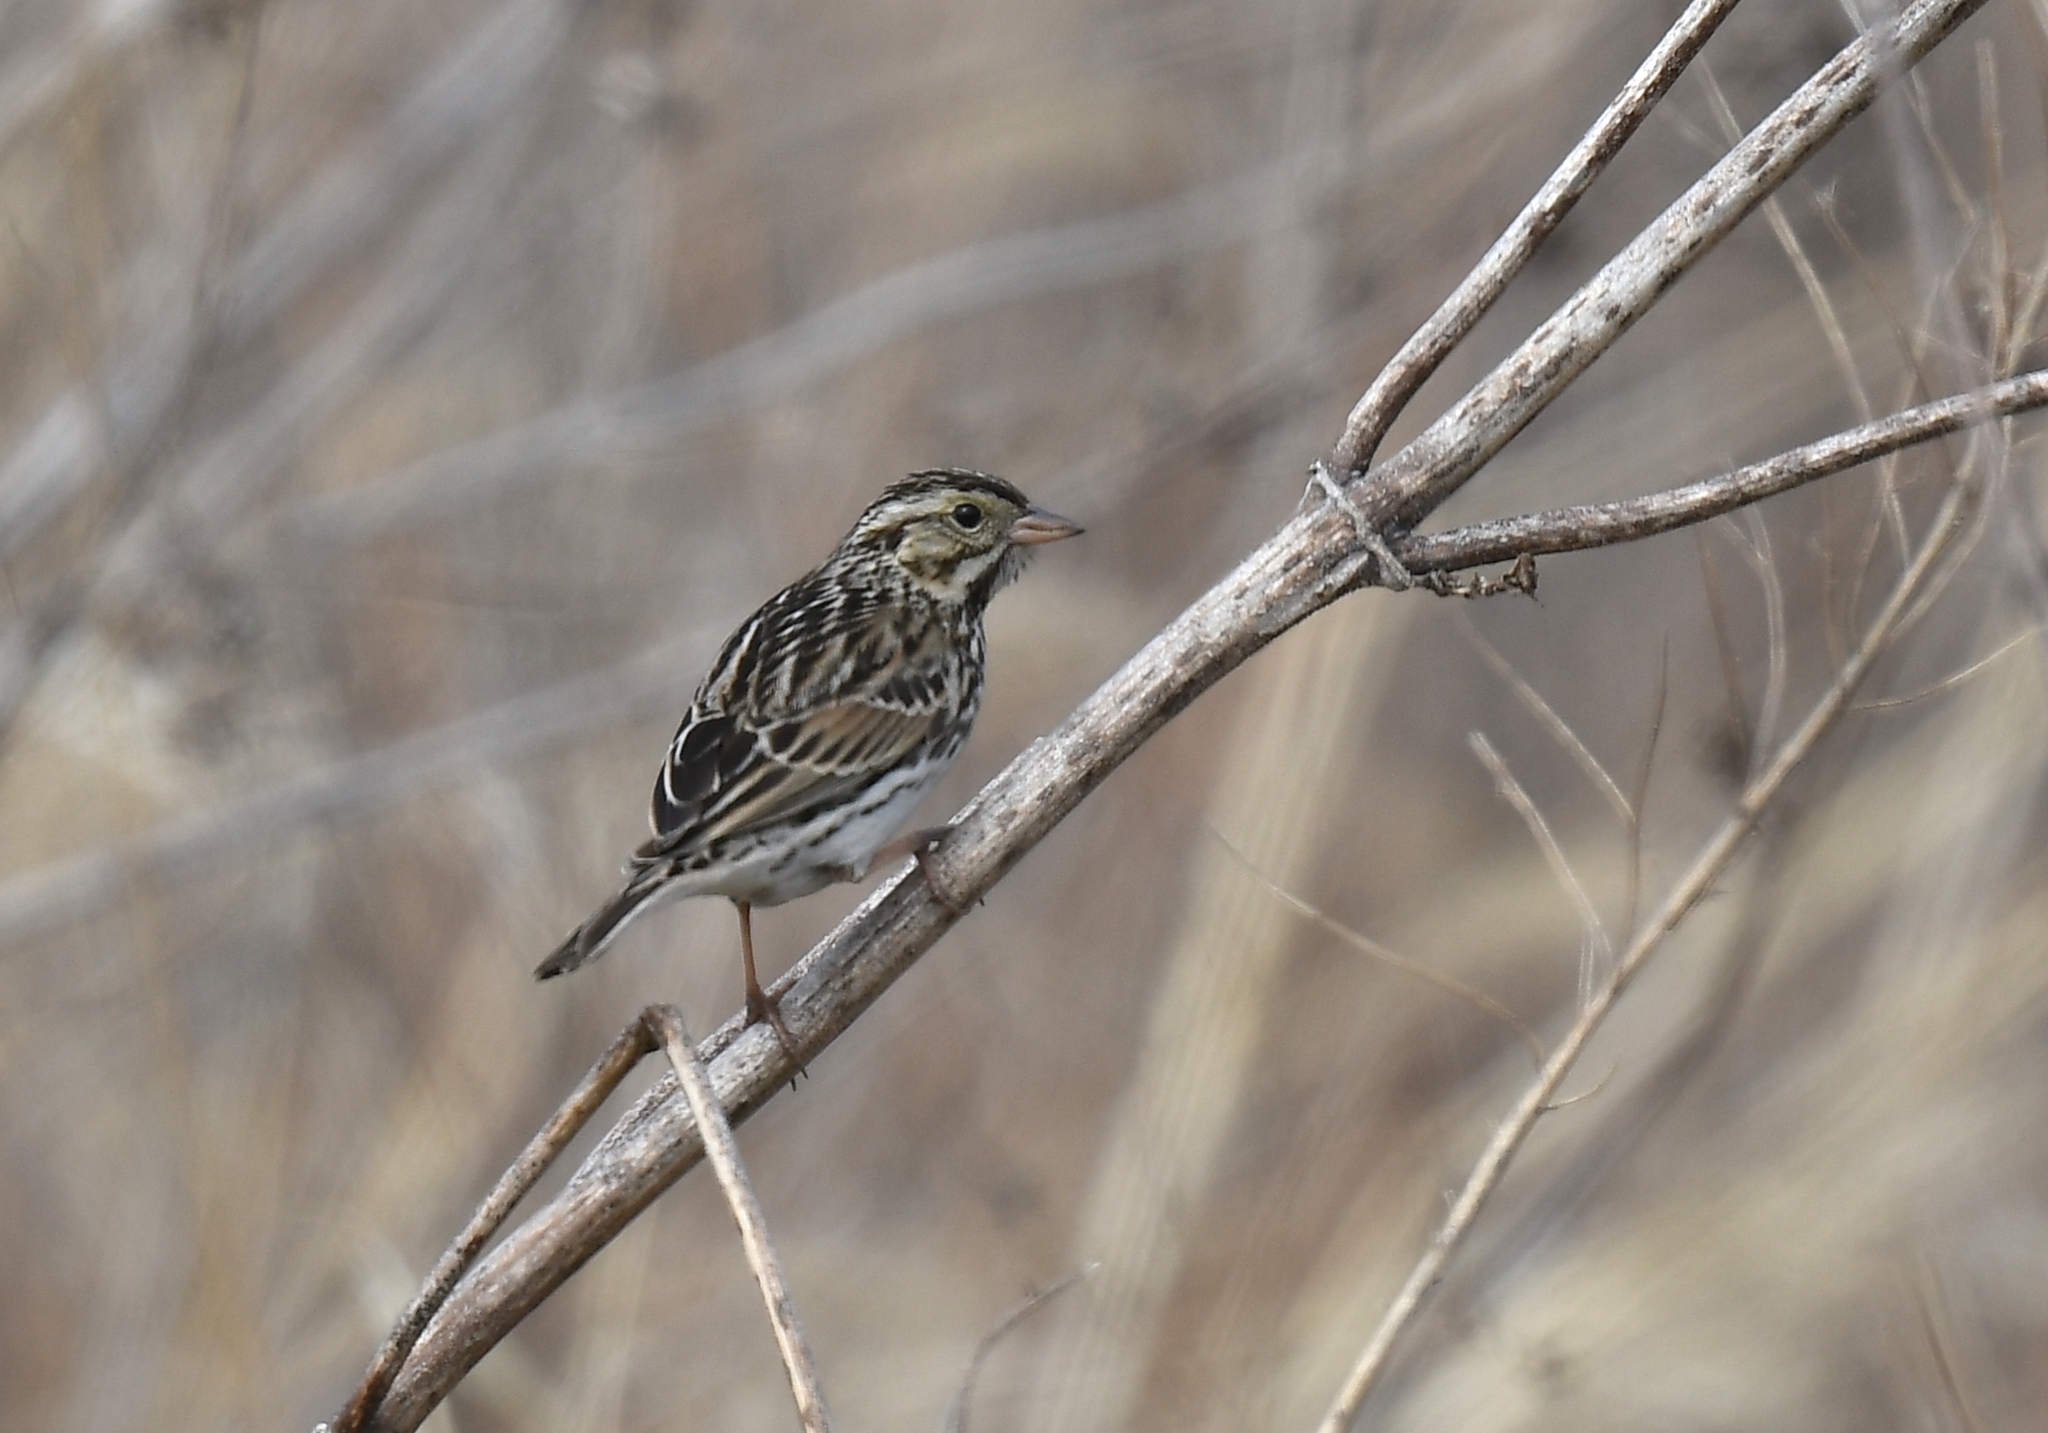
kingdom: Animalia
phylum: Chordata
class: Aves
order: Passeriformes
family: Passerellidae
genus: Passerculus
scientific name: Passerculus sandwichensis
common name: Savannah sparrow
